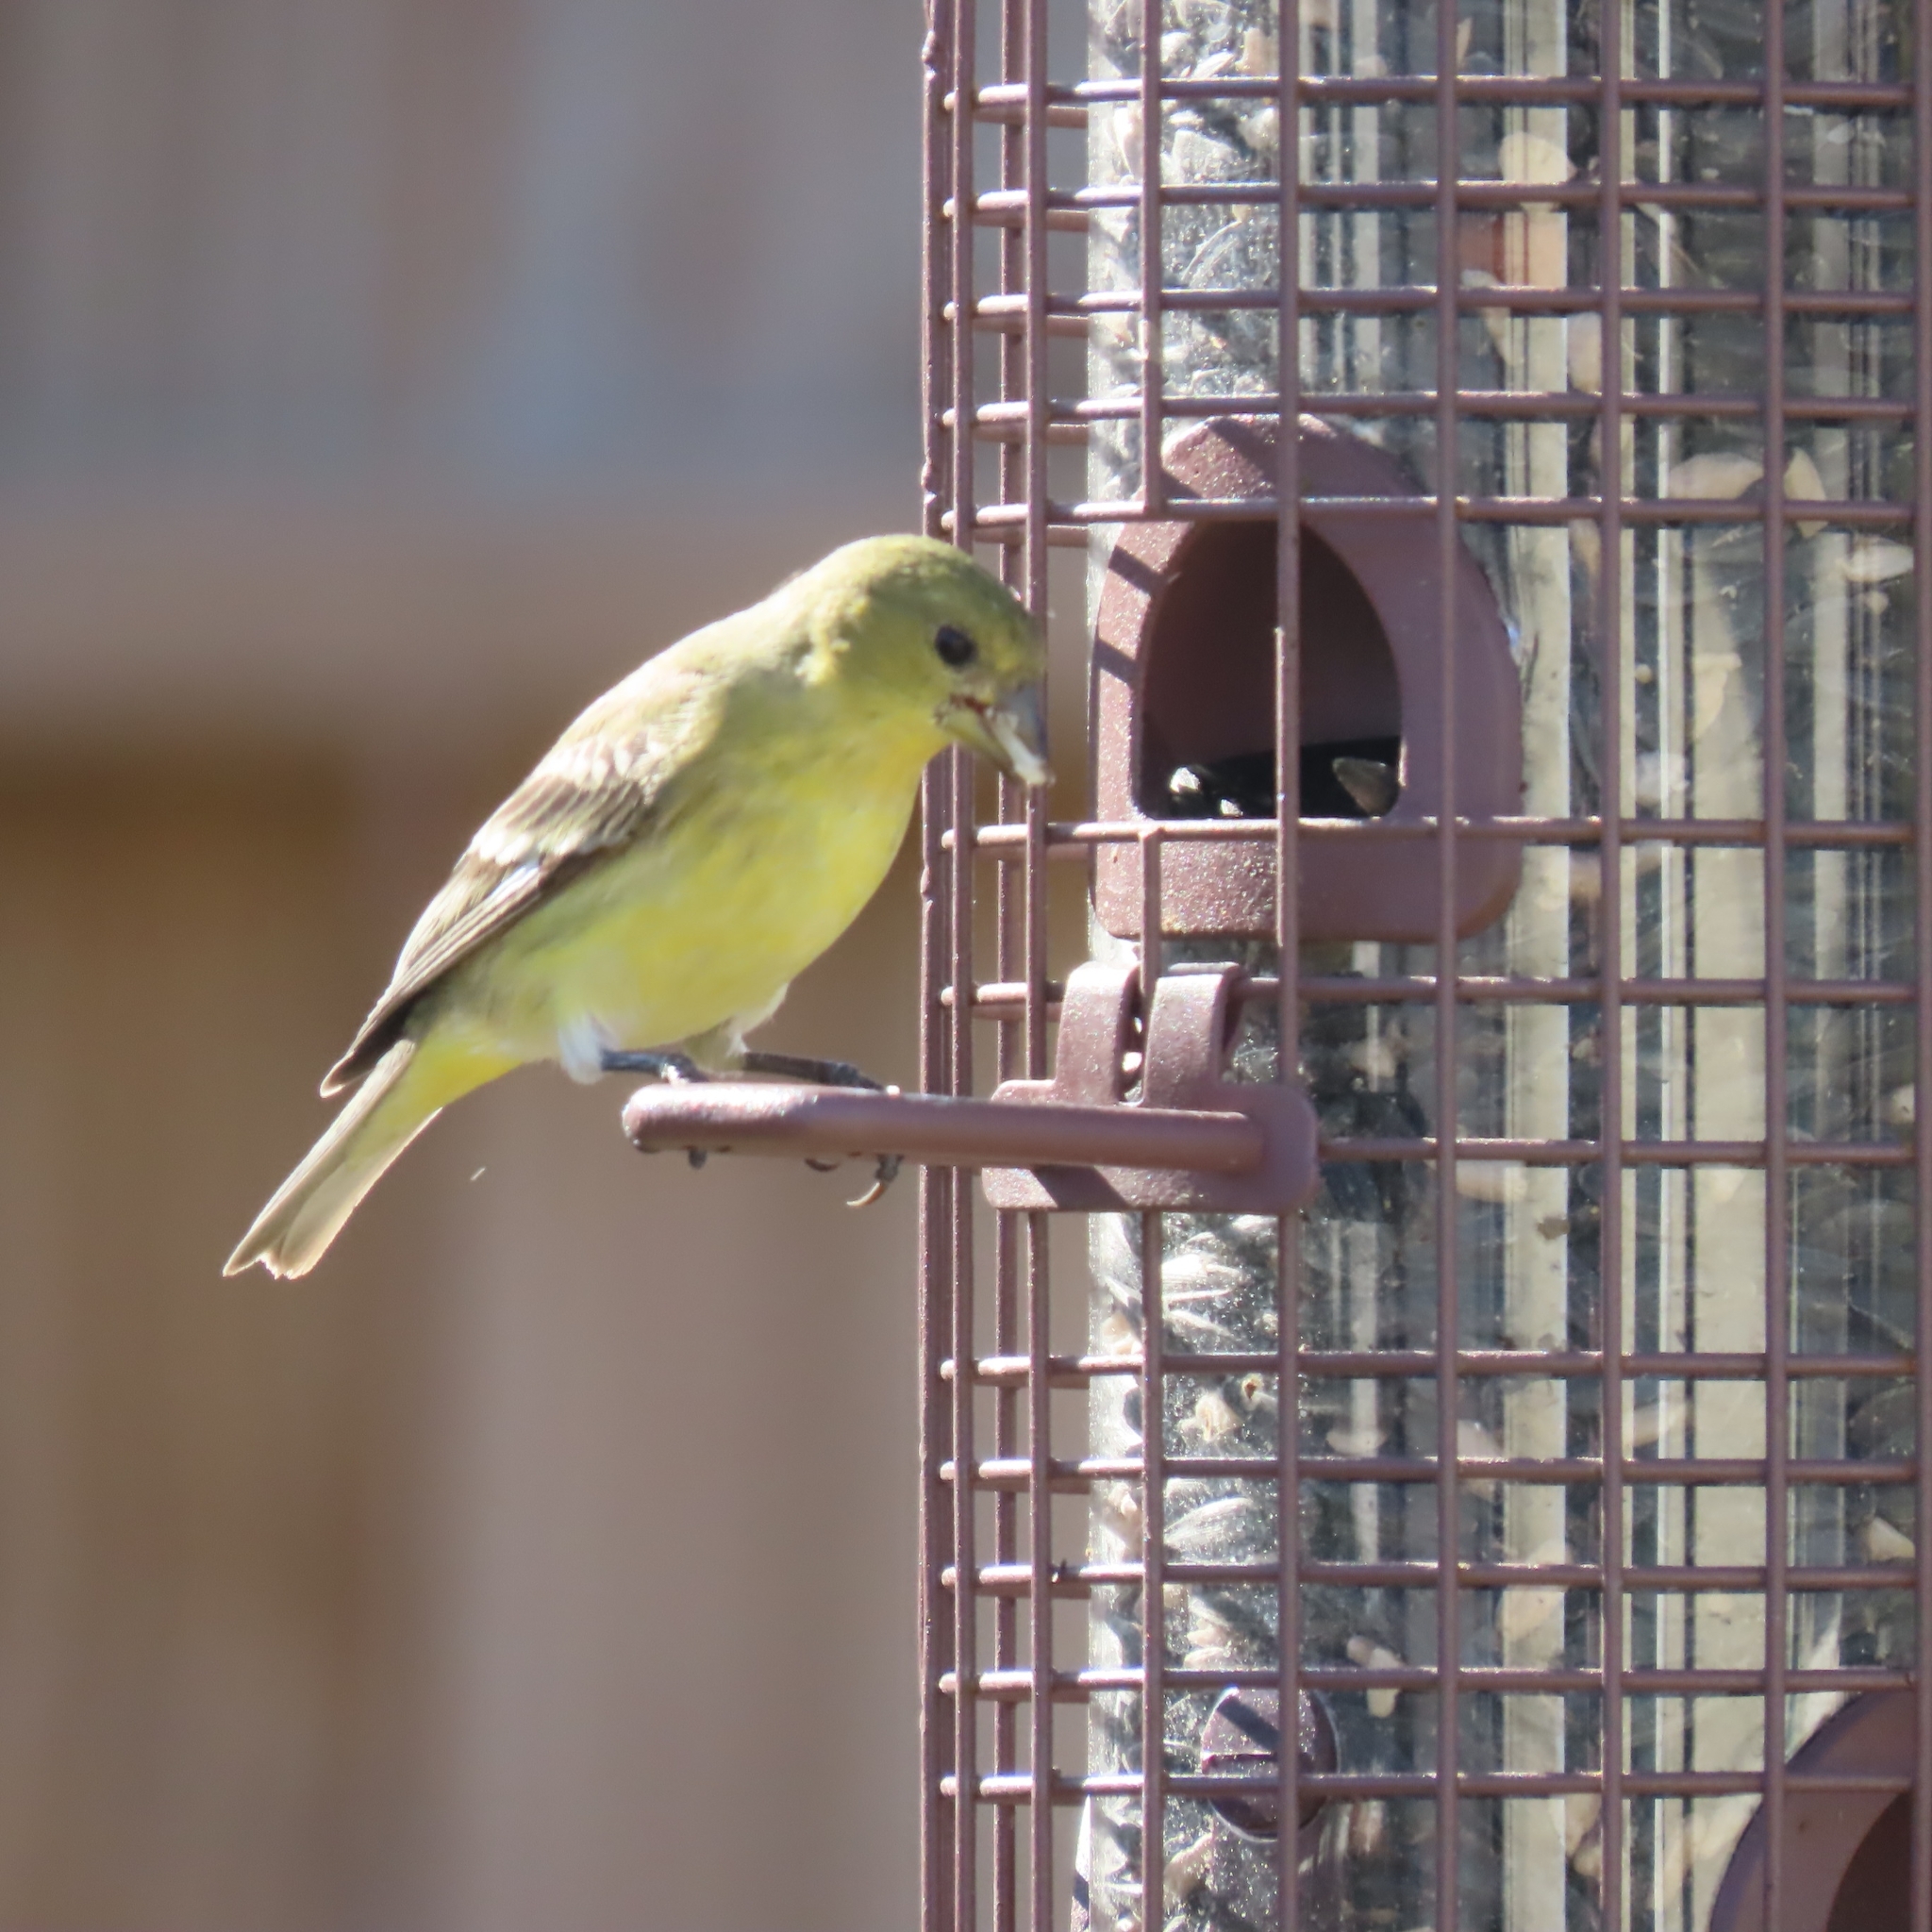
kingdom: Animalia
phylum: Chordata
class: Aves
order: Passeriformes
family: Fringillidae
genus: Spinus
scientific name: Spinus psaltria
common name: Lesser goldfinch
